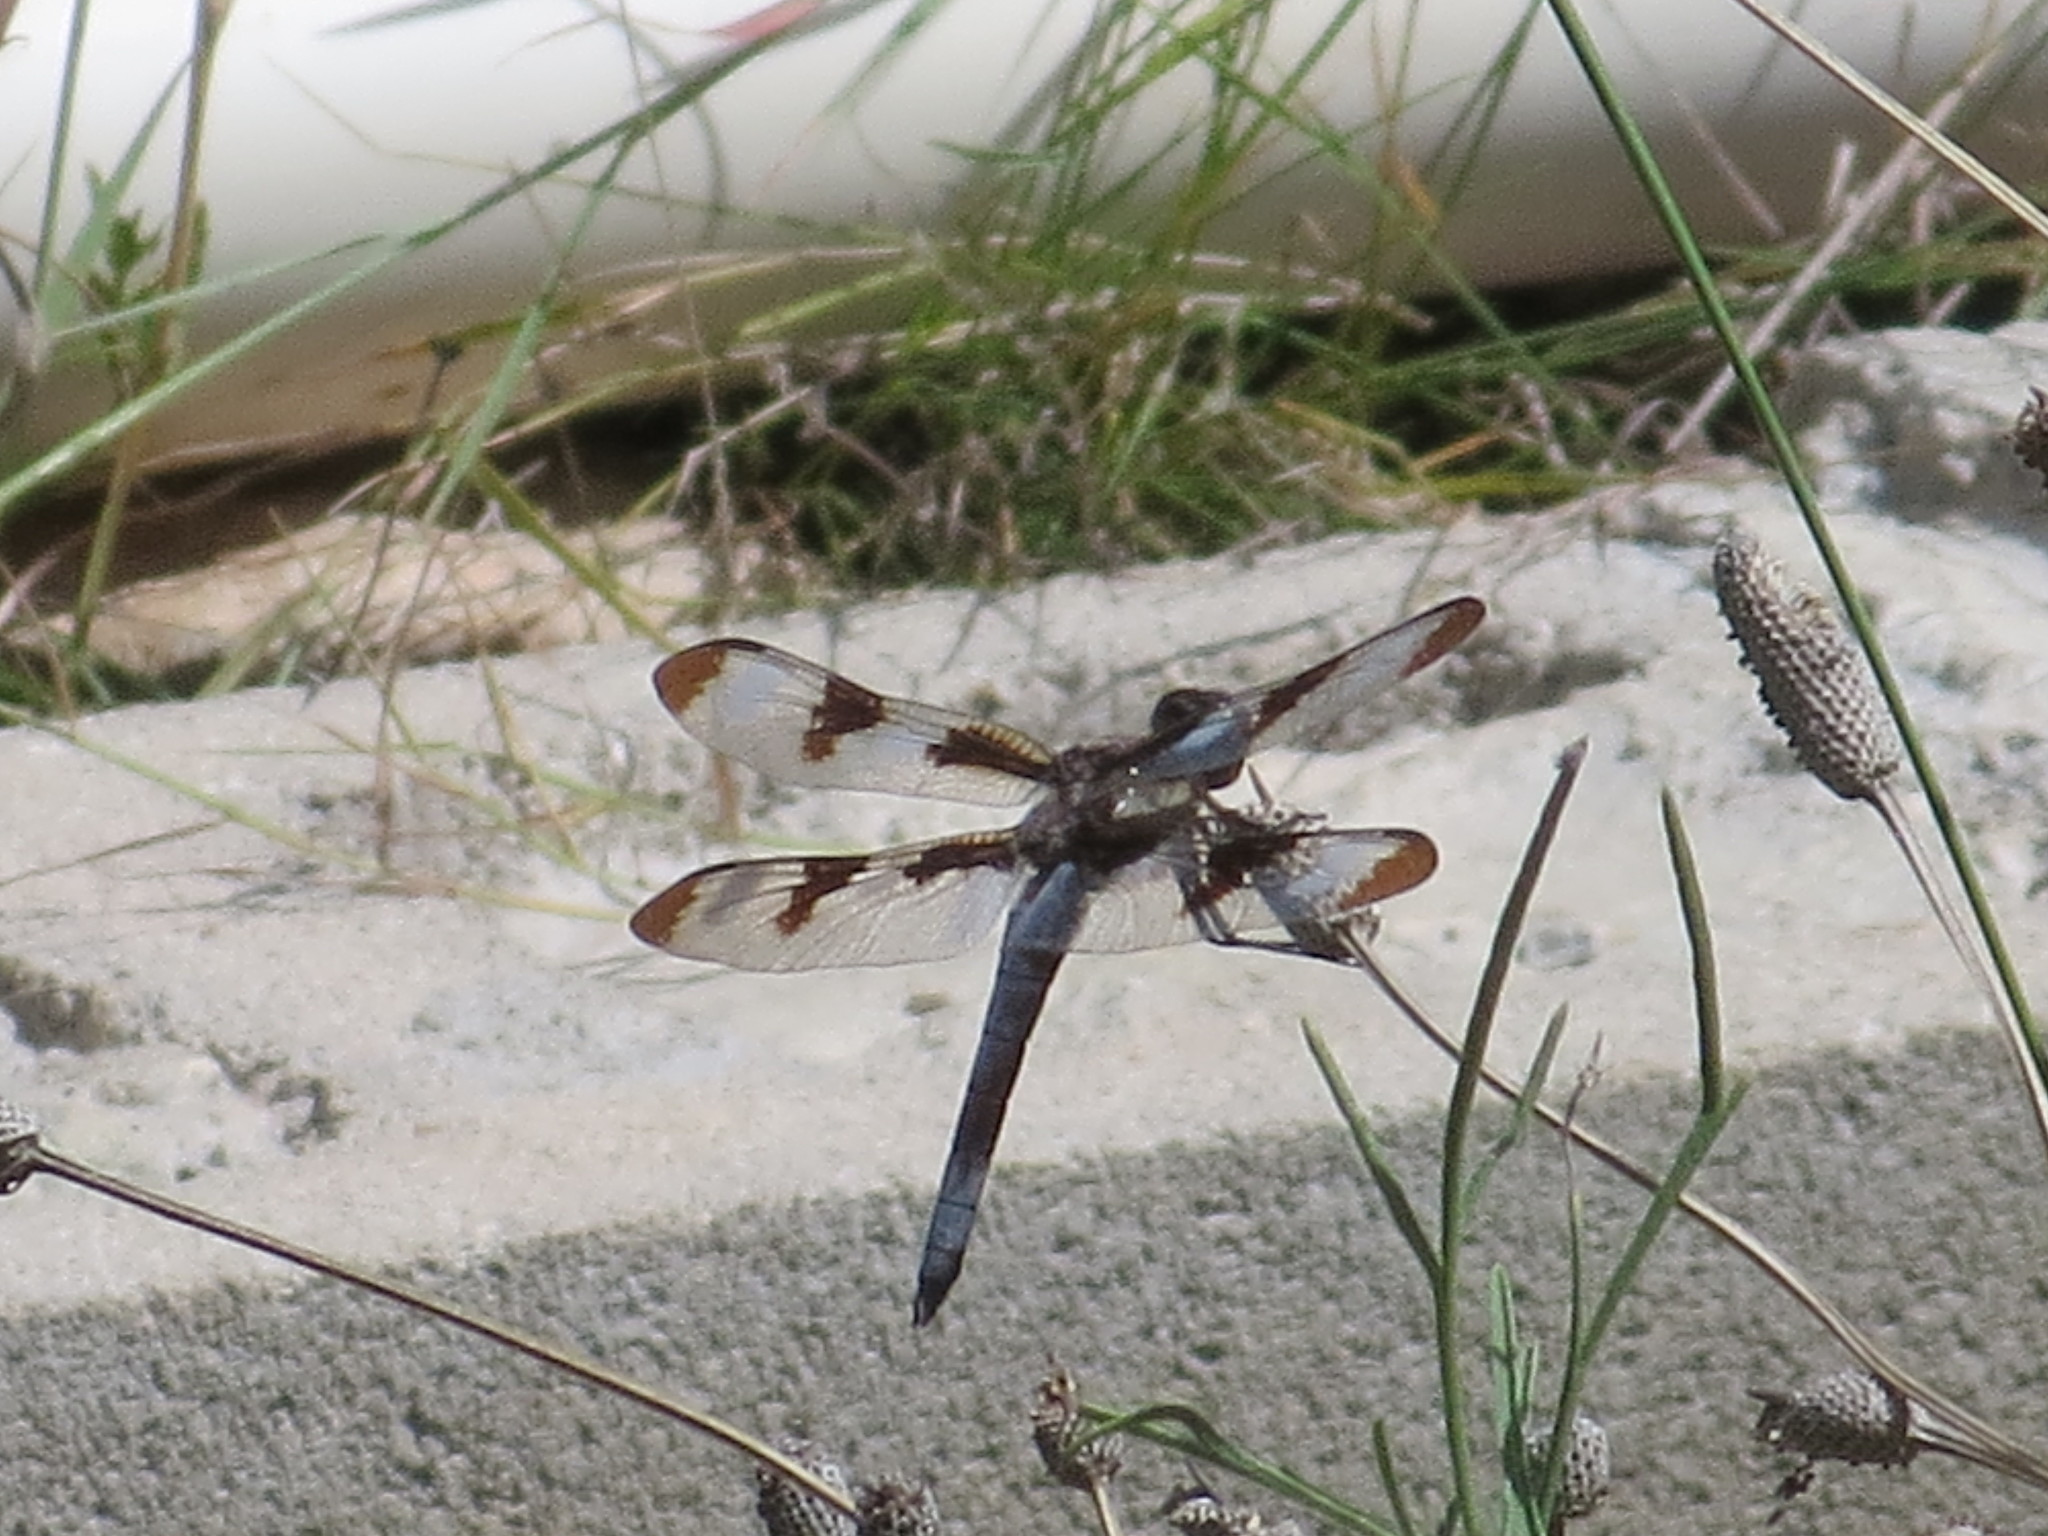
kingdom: Animalia
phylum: Arthropoda
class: Insecta
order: Odonata
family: Libellulidae
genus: Libellula
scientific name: Libellula pulchella
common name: Twelve-spotted skimmer
